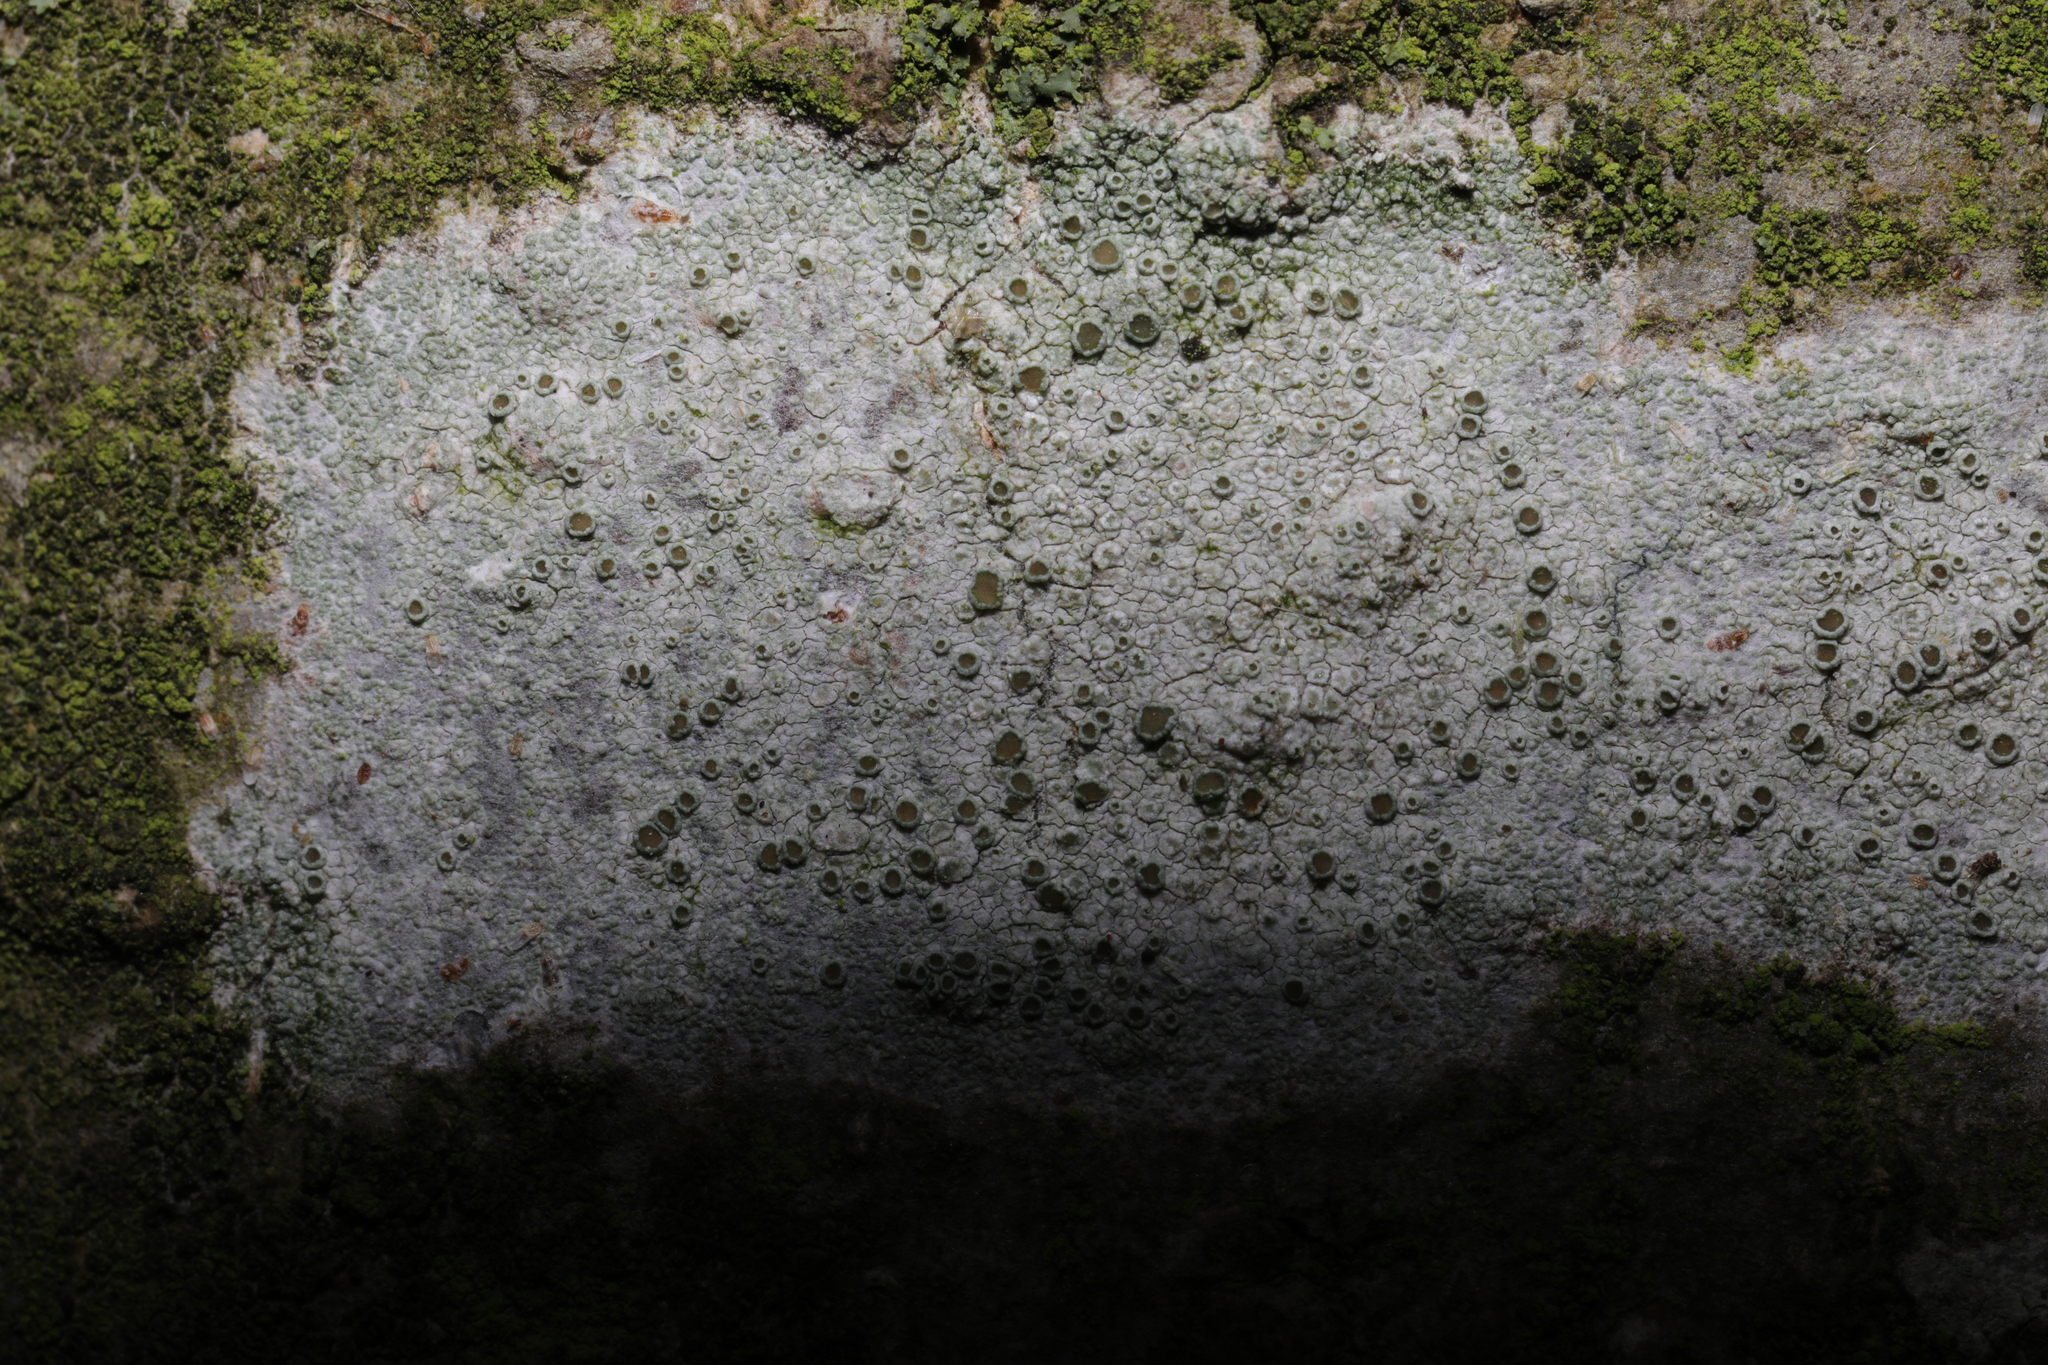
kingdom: Fungi
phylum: Ascomycota
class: Lecanoromycetes
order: Lecanorales
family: Lecanoraceae
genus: Lecanora
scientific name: Lecanora
